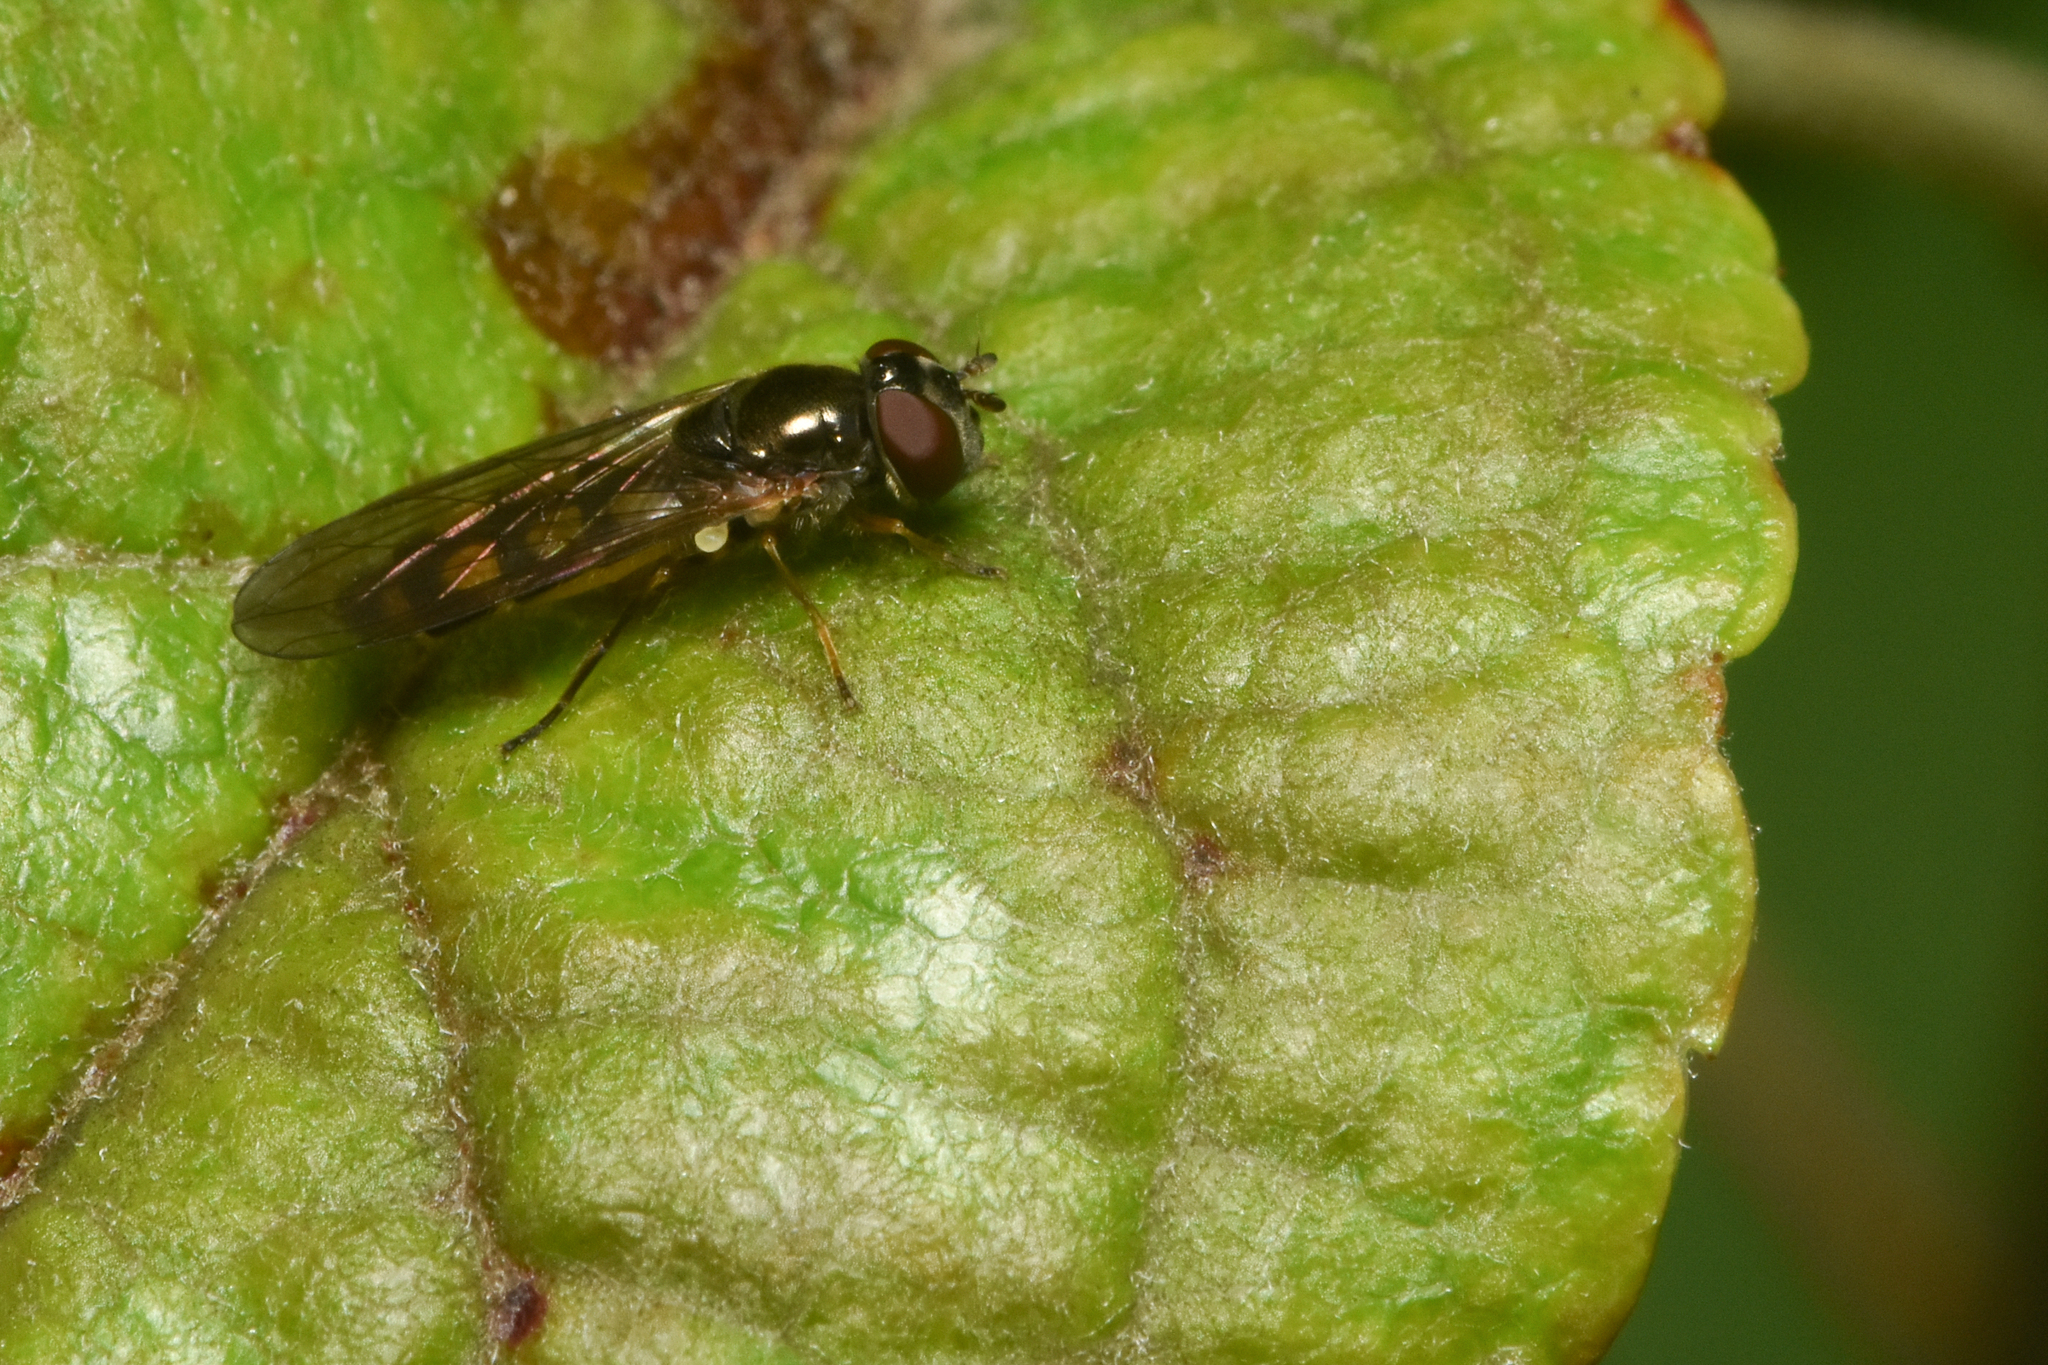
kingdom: Animalia
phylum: Arthropoda
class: Insecta
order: Diptera
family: Syrphidae
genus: Melanostoma
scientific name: Melanostoma mellina
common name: Hover fly
